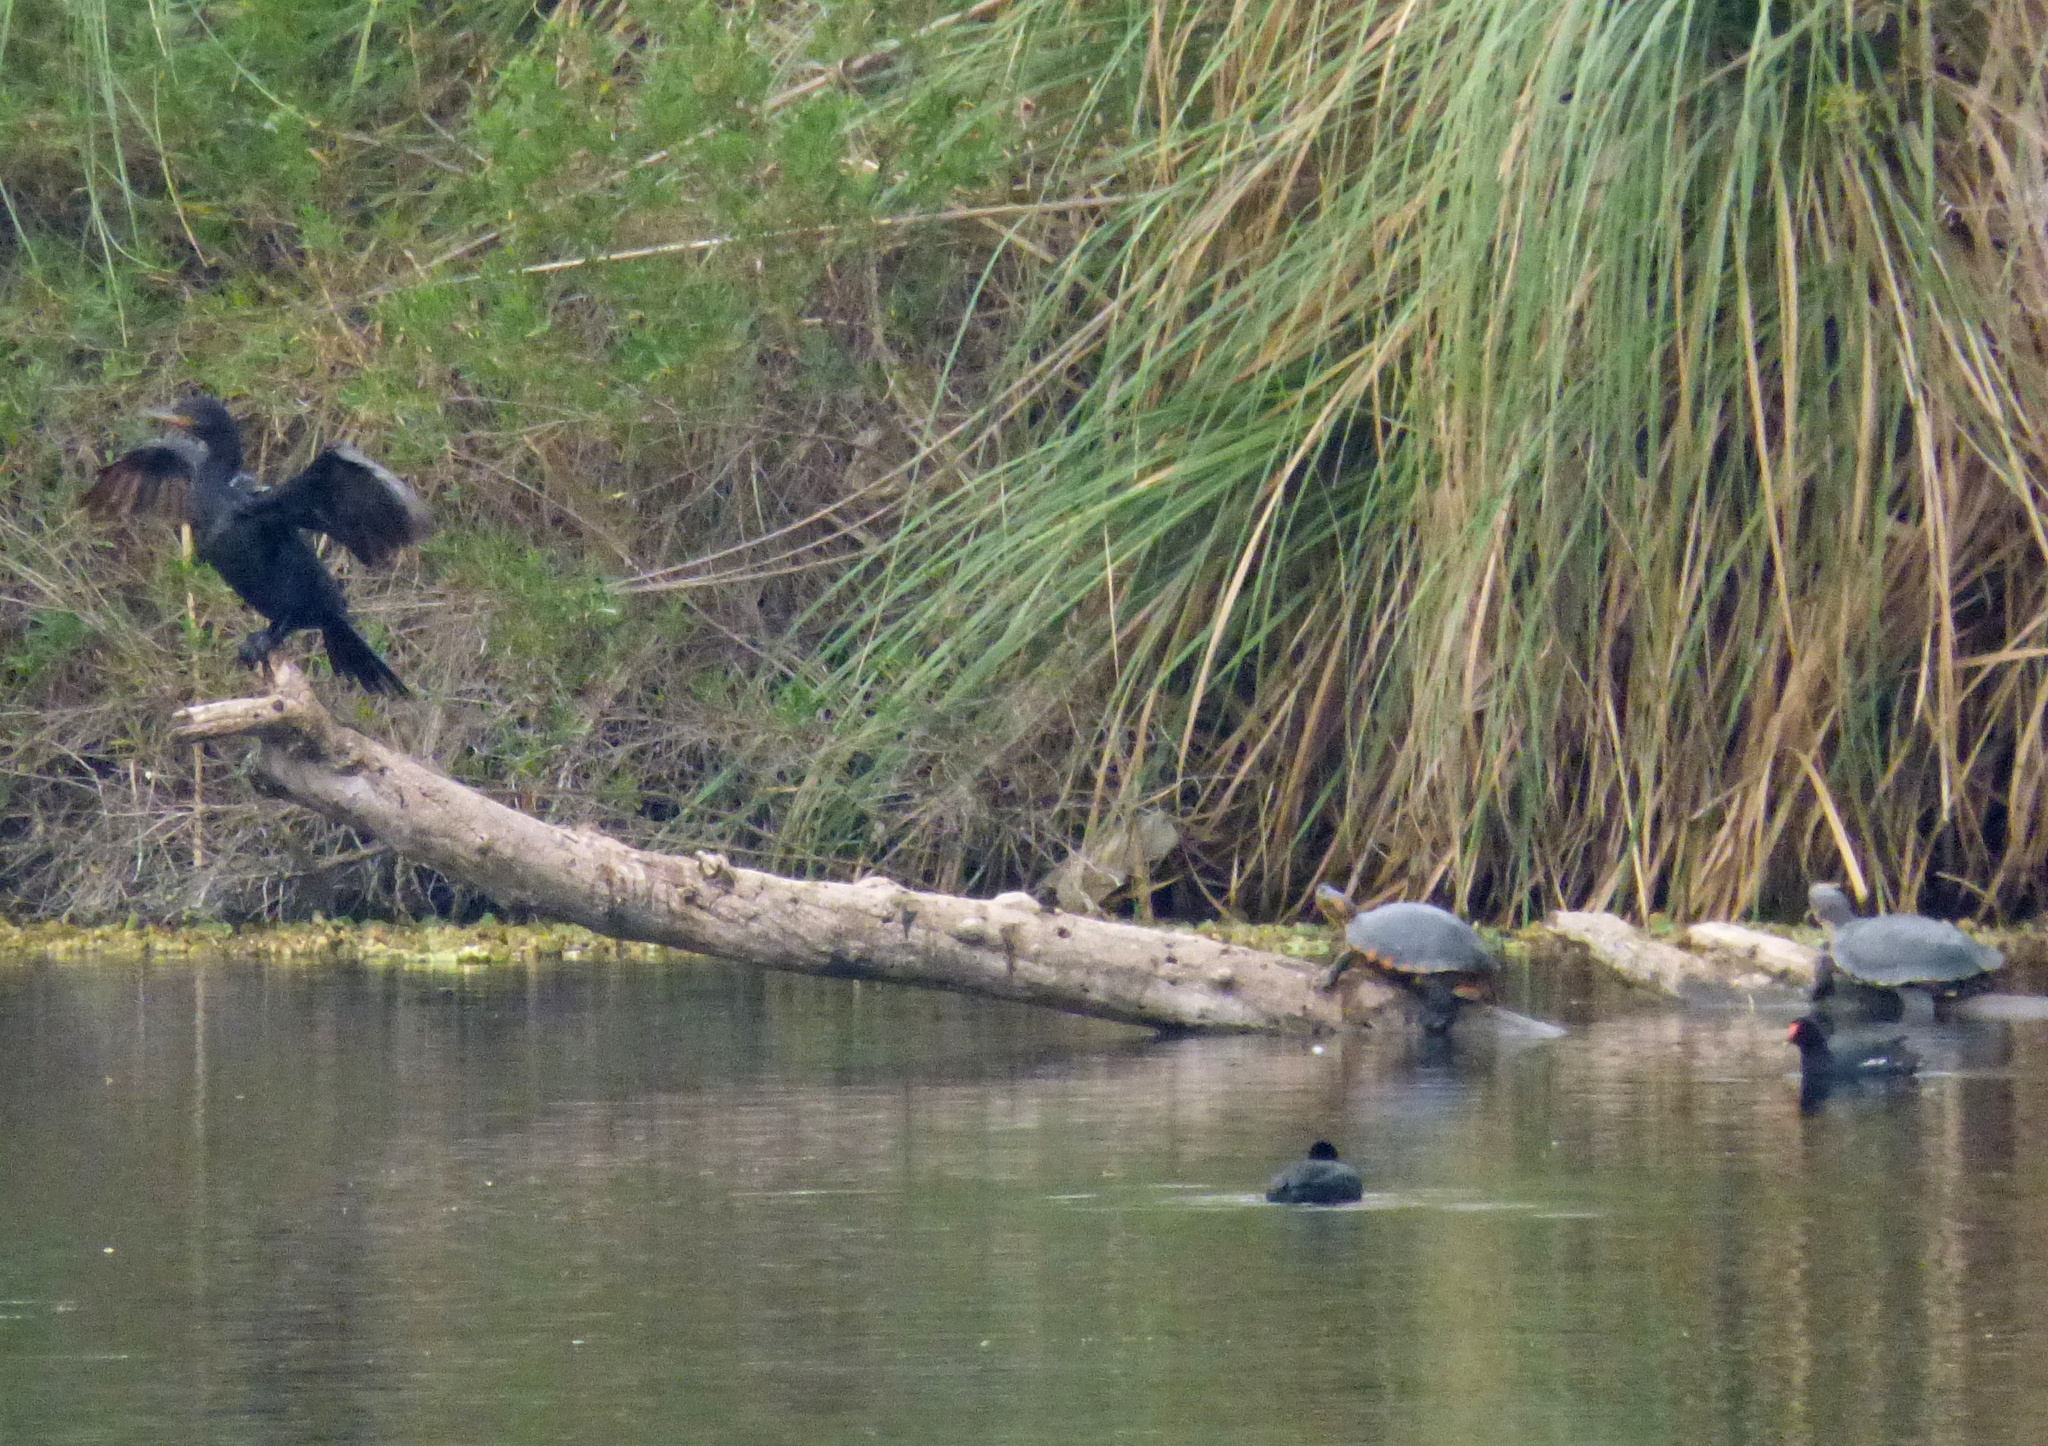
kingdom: Animalia
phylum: Chordata
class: Aves
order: Suliformes
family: Phalacrocoracidae
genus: Phalacrocorax
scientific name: Phalacrocorax brasilianus
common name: Neotropic cormorant
